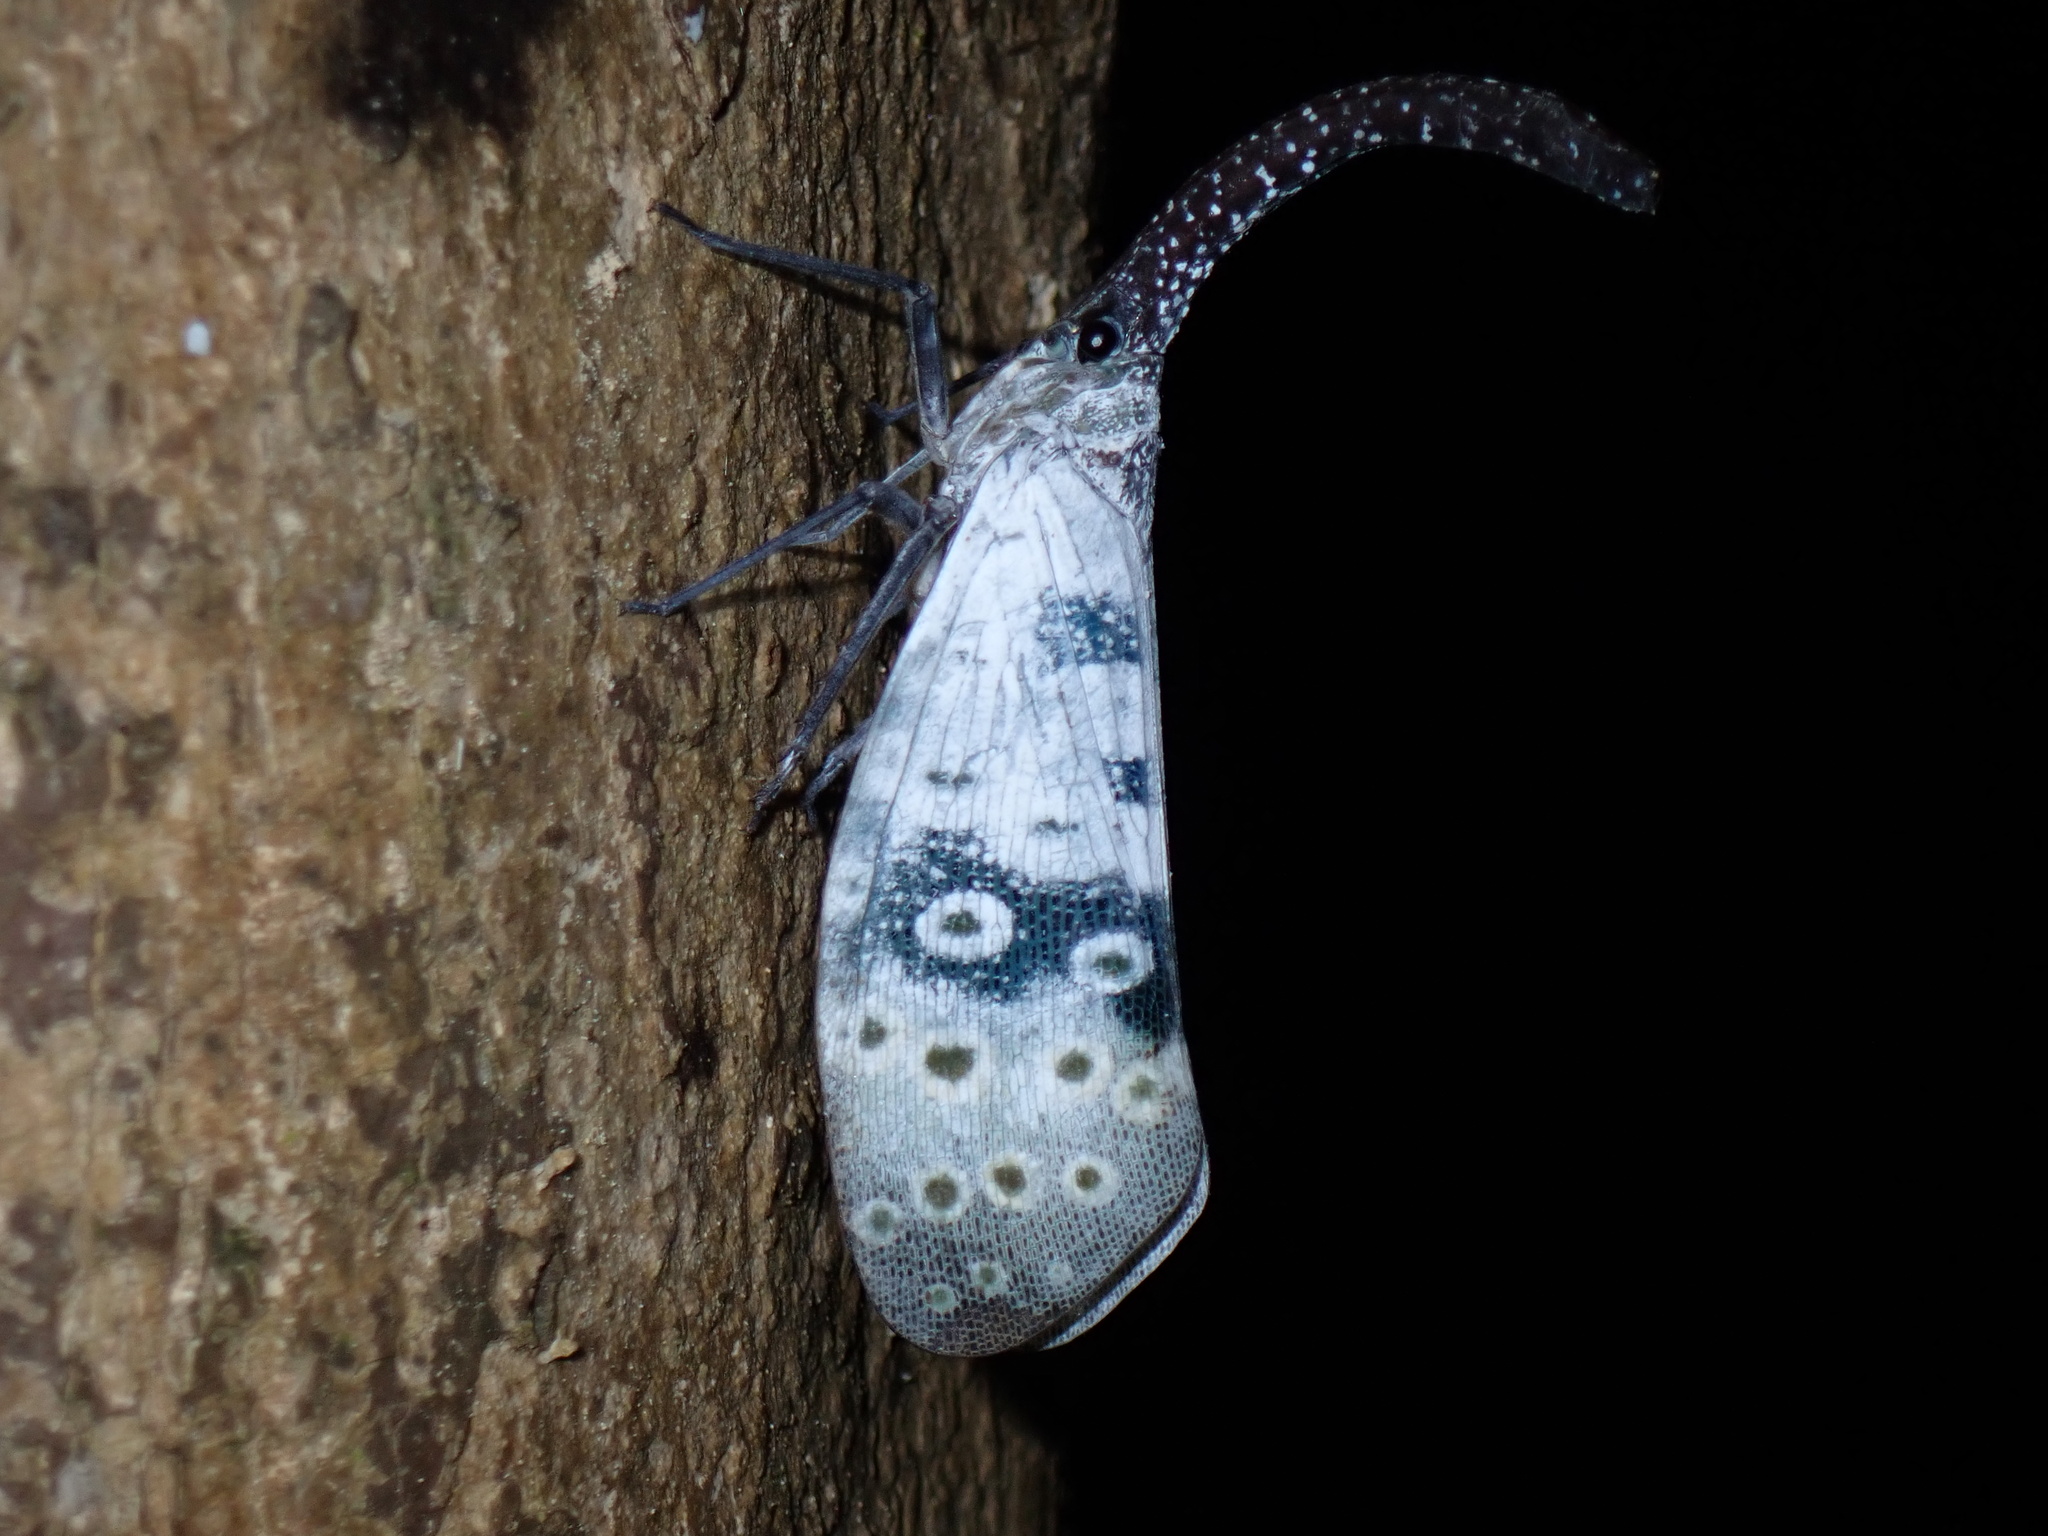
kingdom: Animalia
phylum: Arthropoda
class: Insecta
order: Hemiptera
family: Fulgoridae
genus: Pyrops
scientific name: Pyrops coelestinus
